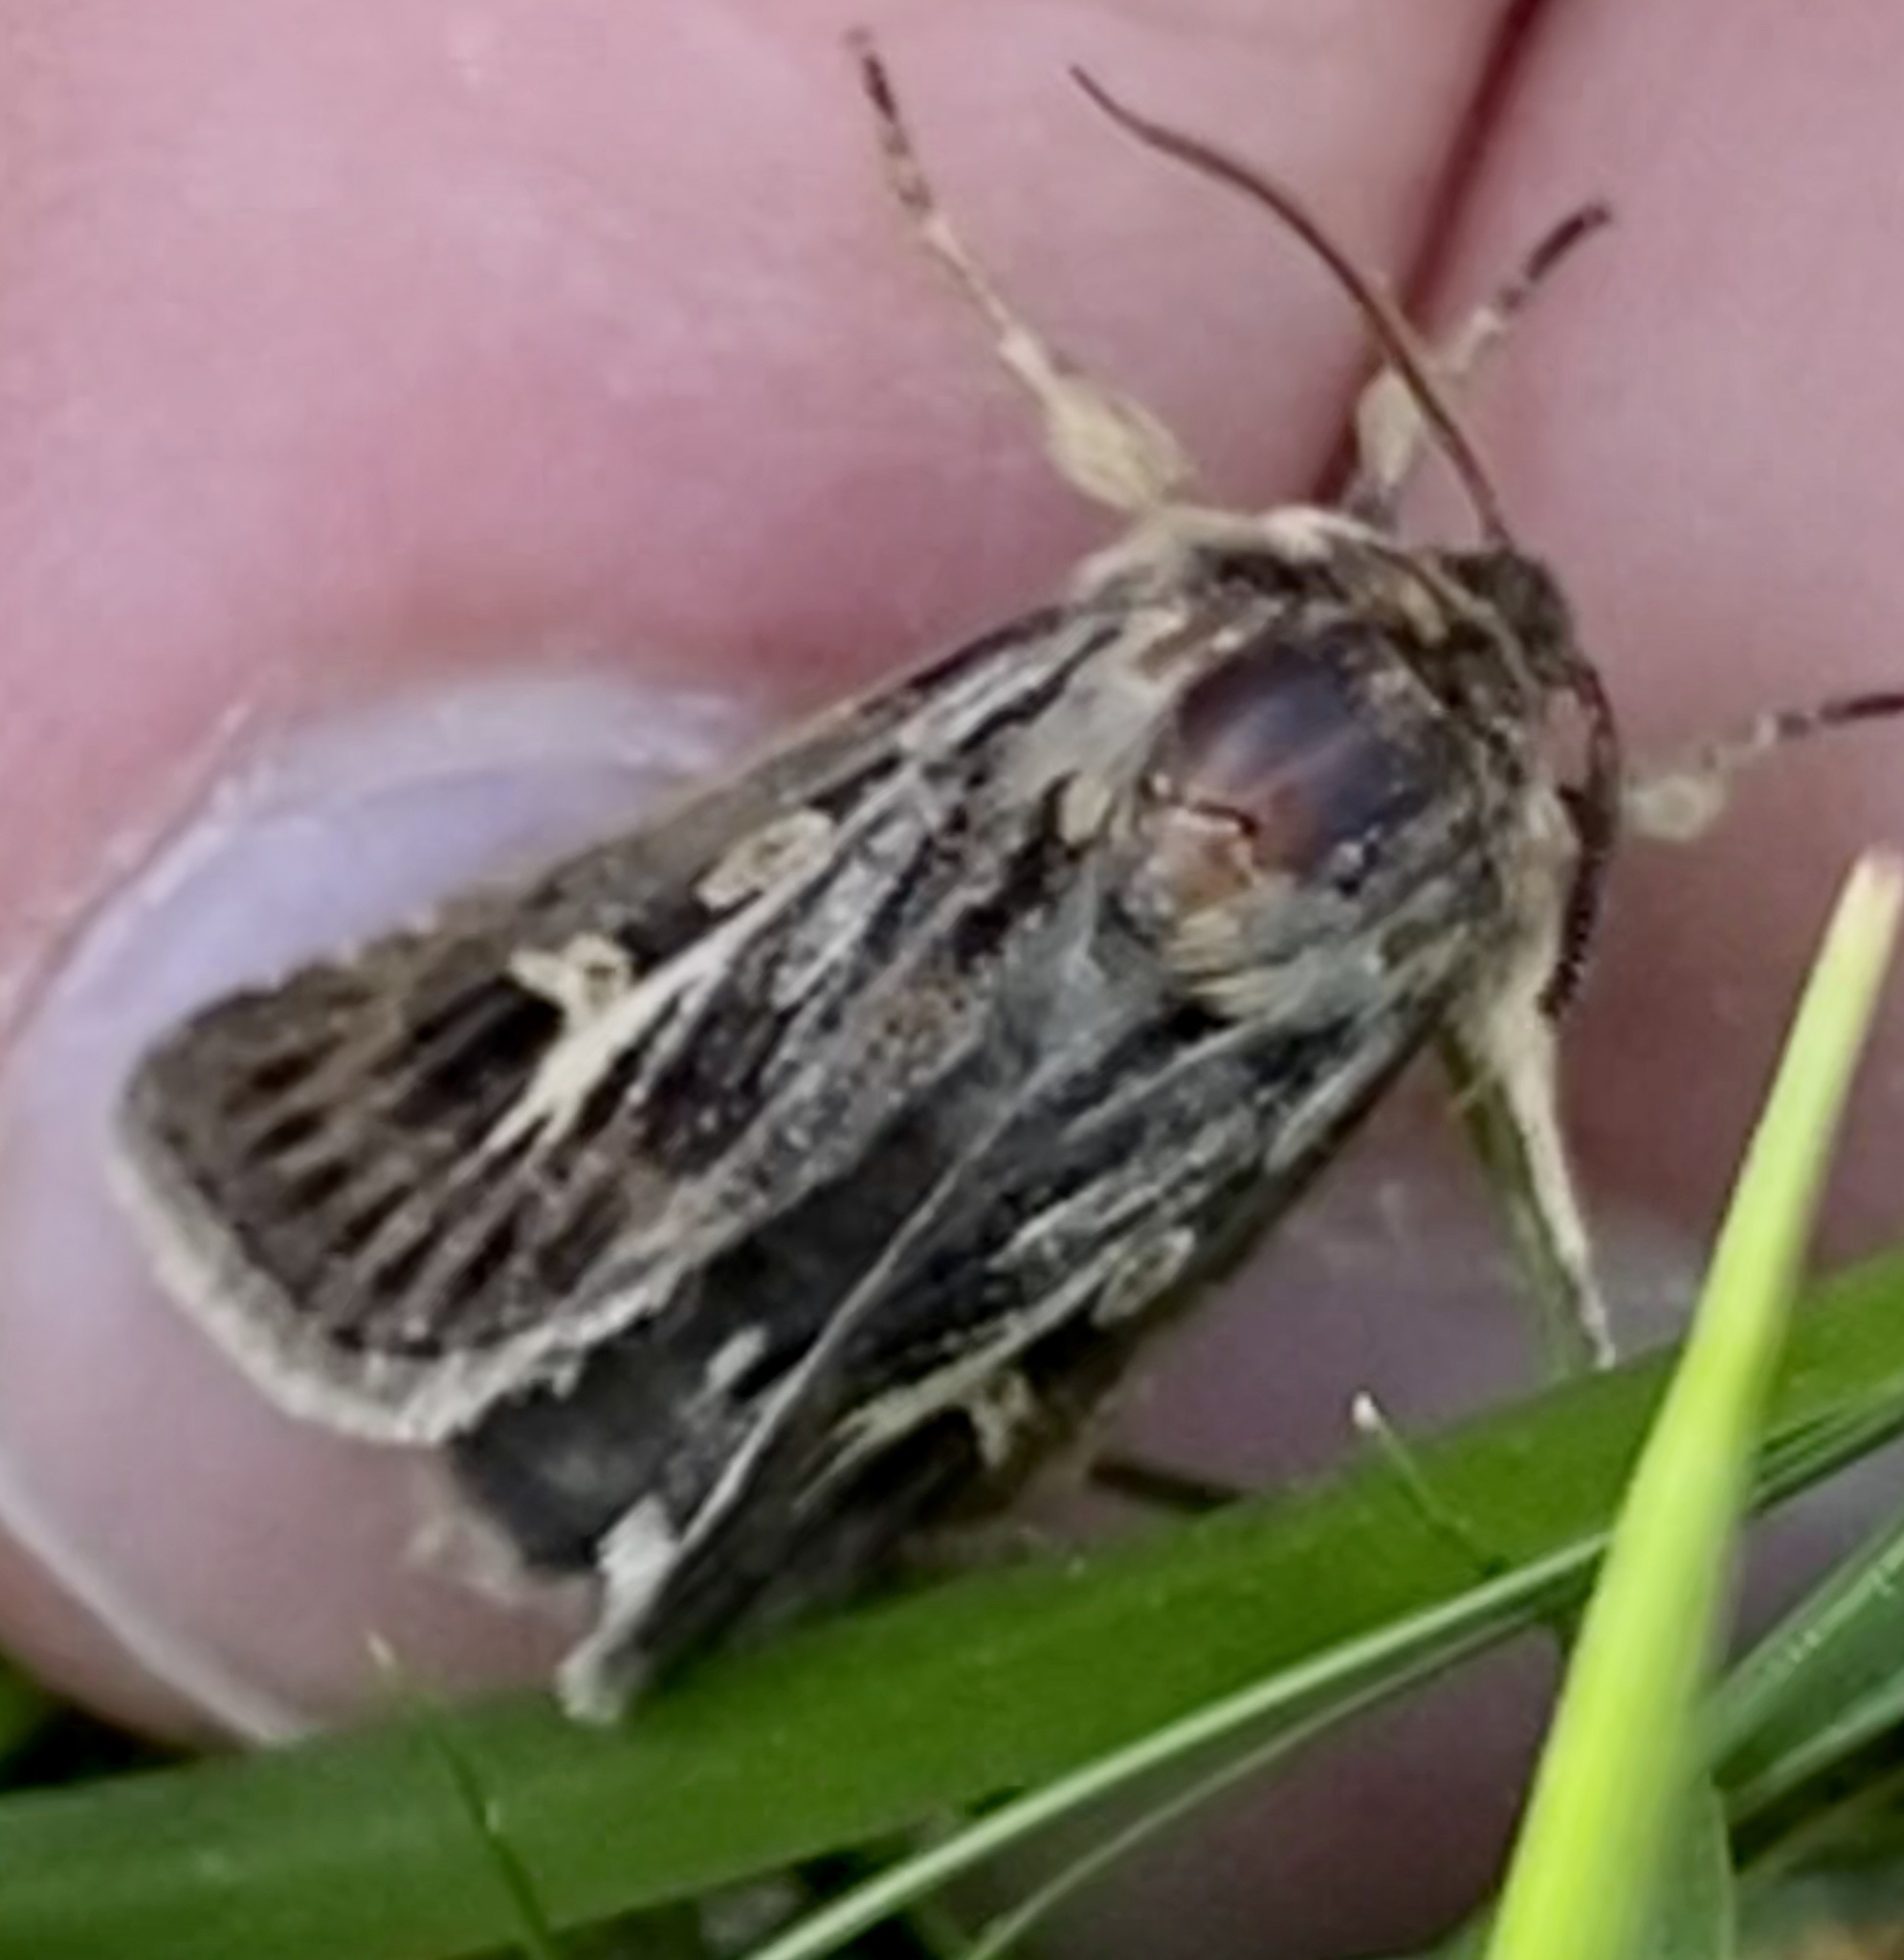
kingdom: Animalia
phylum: Arthropoda
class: Insecta
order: Lepidoptera
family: Noctuidae
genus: Cerapteryx
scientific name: Cerapteryx graminis
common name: Antler moth
